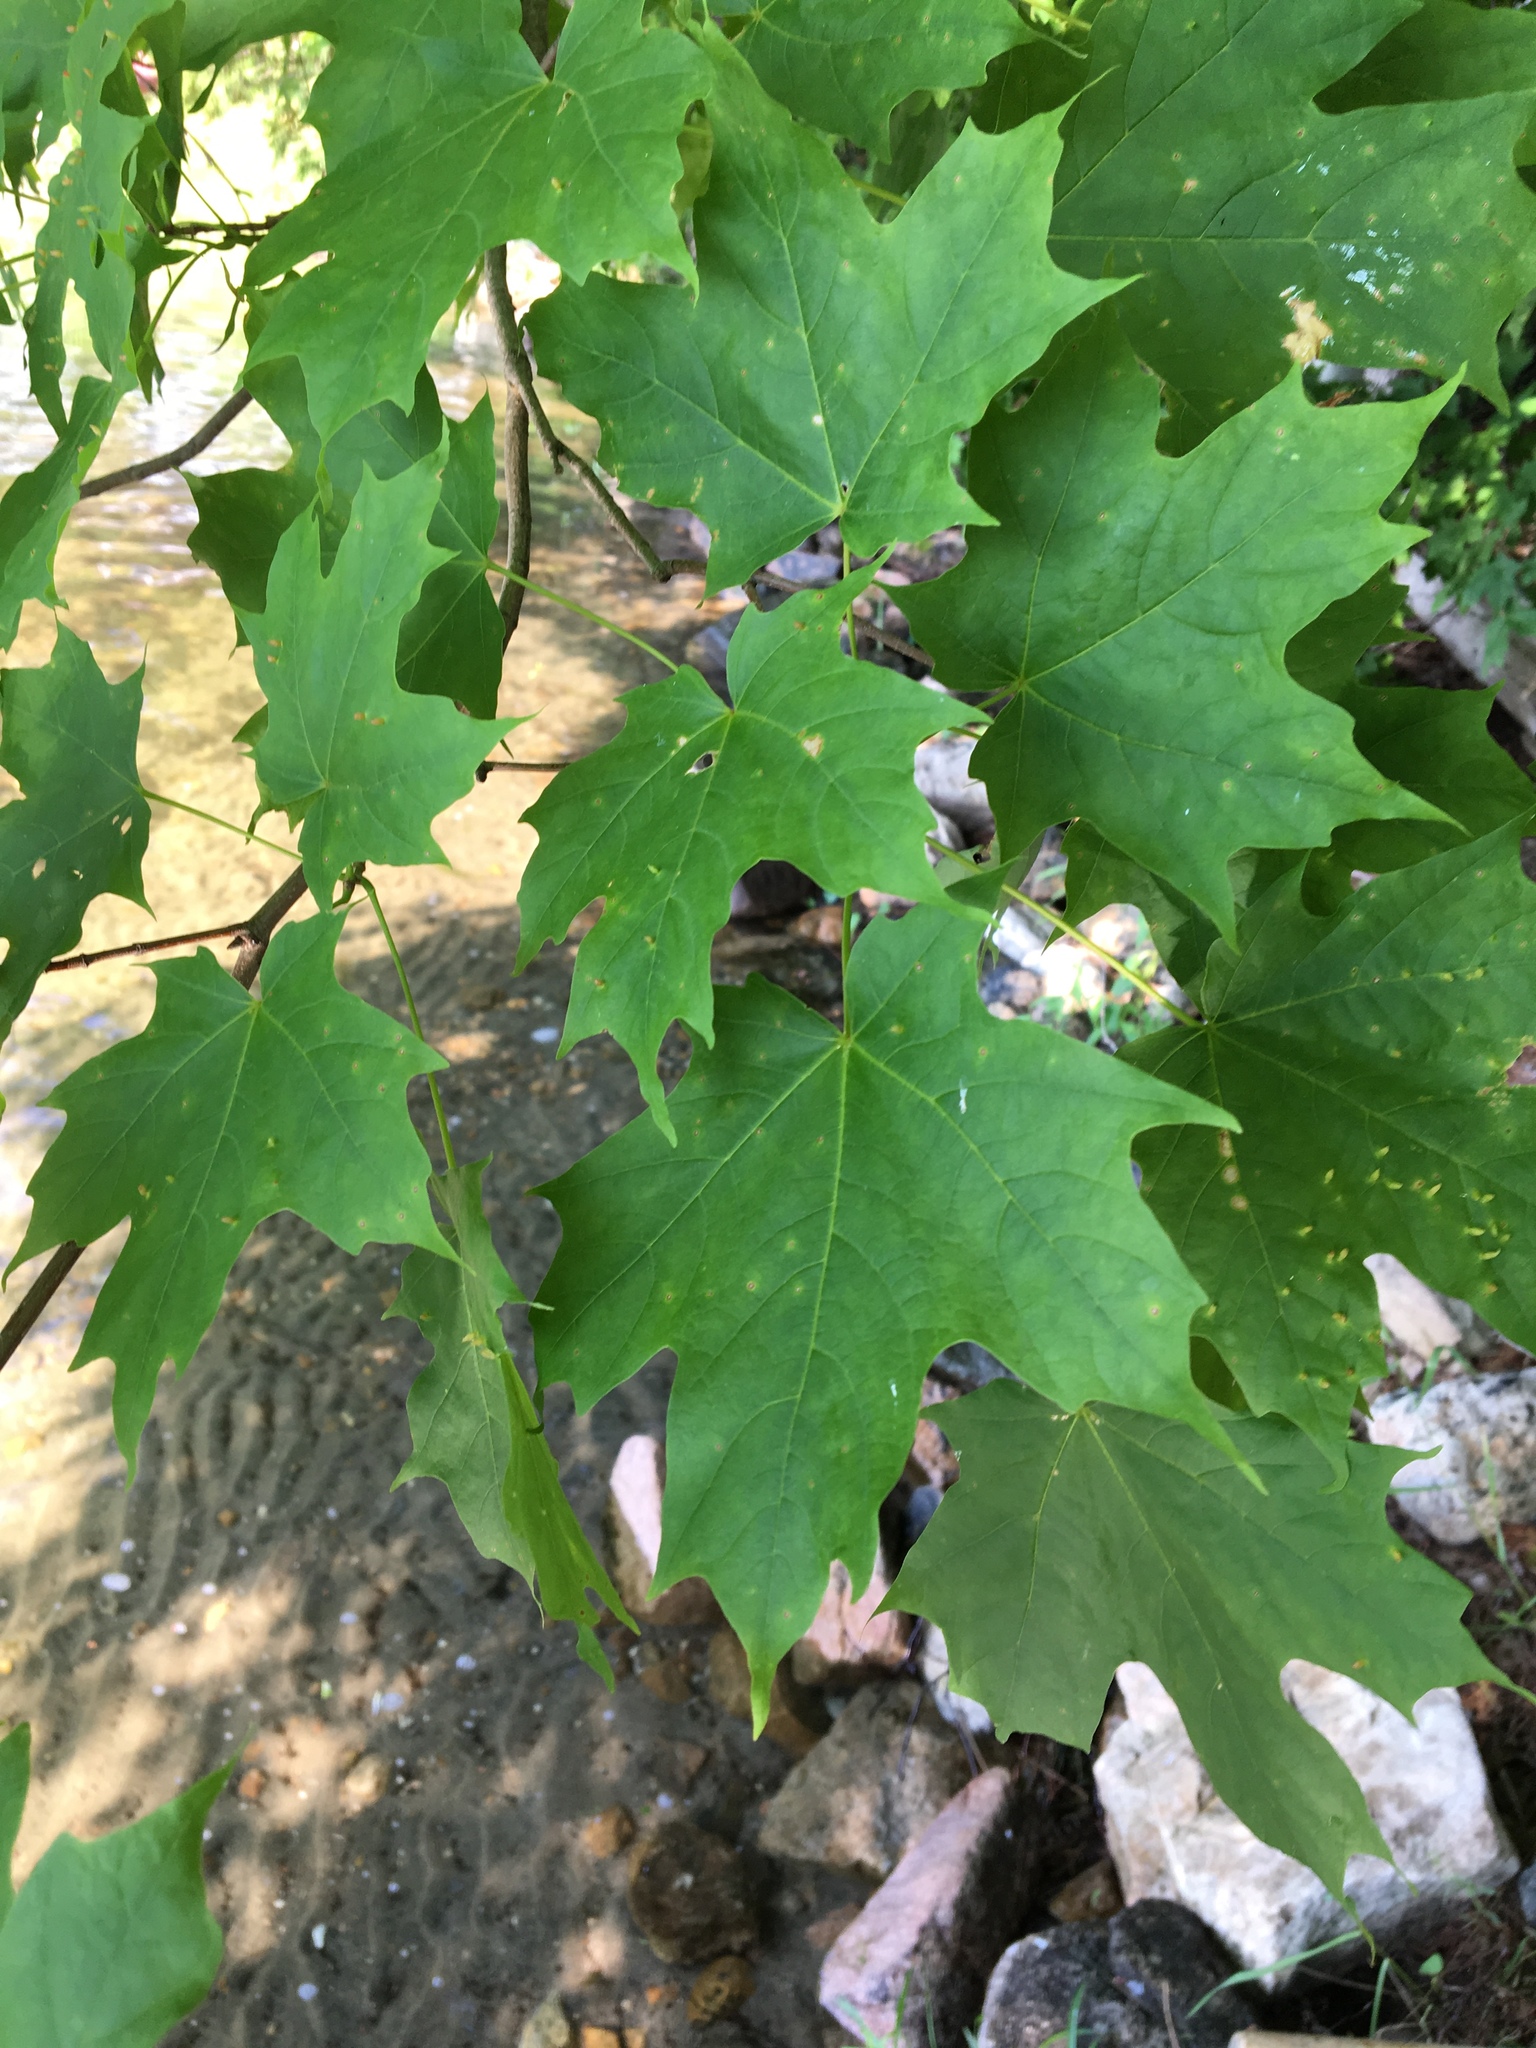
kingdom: Plantae
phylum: Tracheophyta
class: Magnoliopsida
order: Sapindales
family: Sapindaceae
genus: Acer
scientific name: Acer saccharum
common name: Sugar maple
